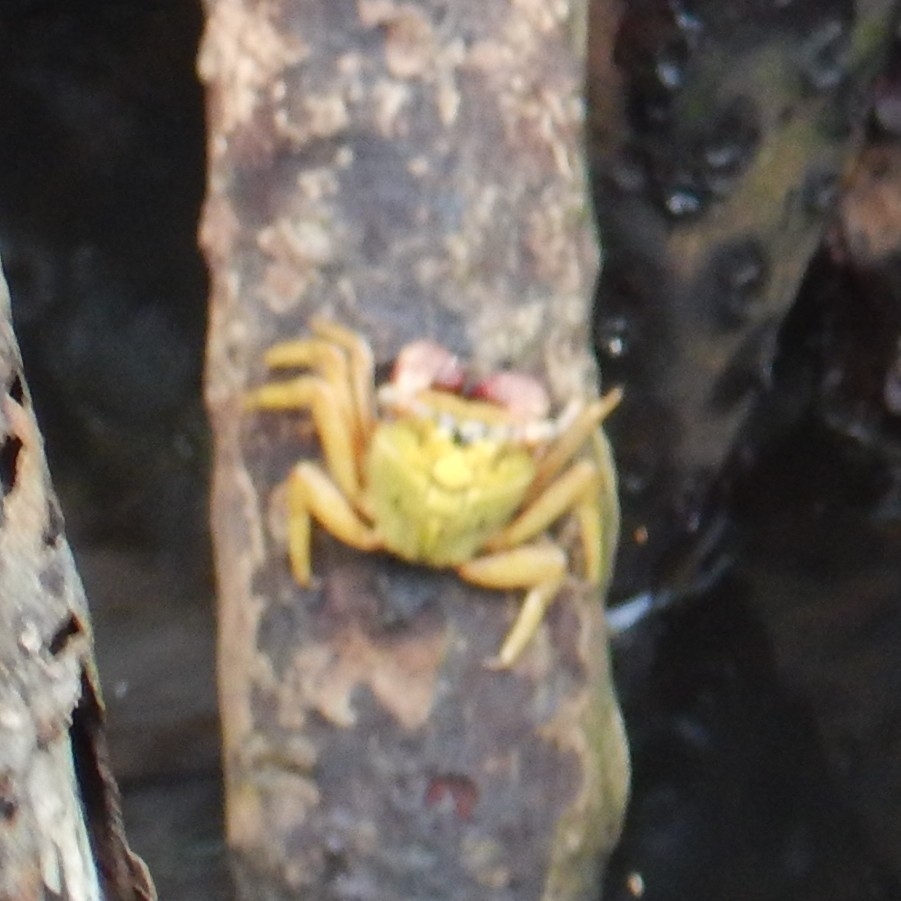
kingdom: Animalia
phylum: Arthropoda
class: Malacostraca
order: Decapoda
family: Sesarmidae
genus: Aratus
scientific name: Aratus pisonii
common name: Mangrove crab
